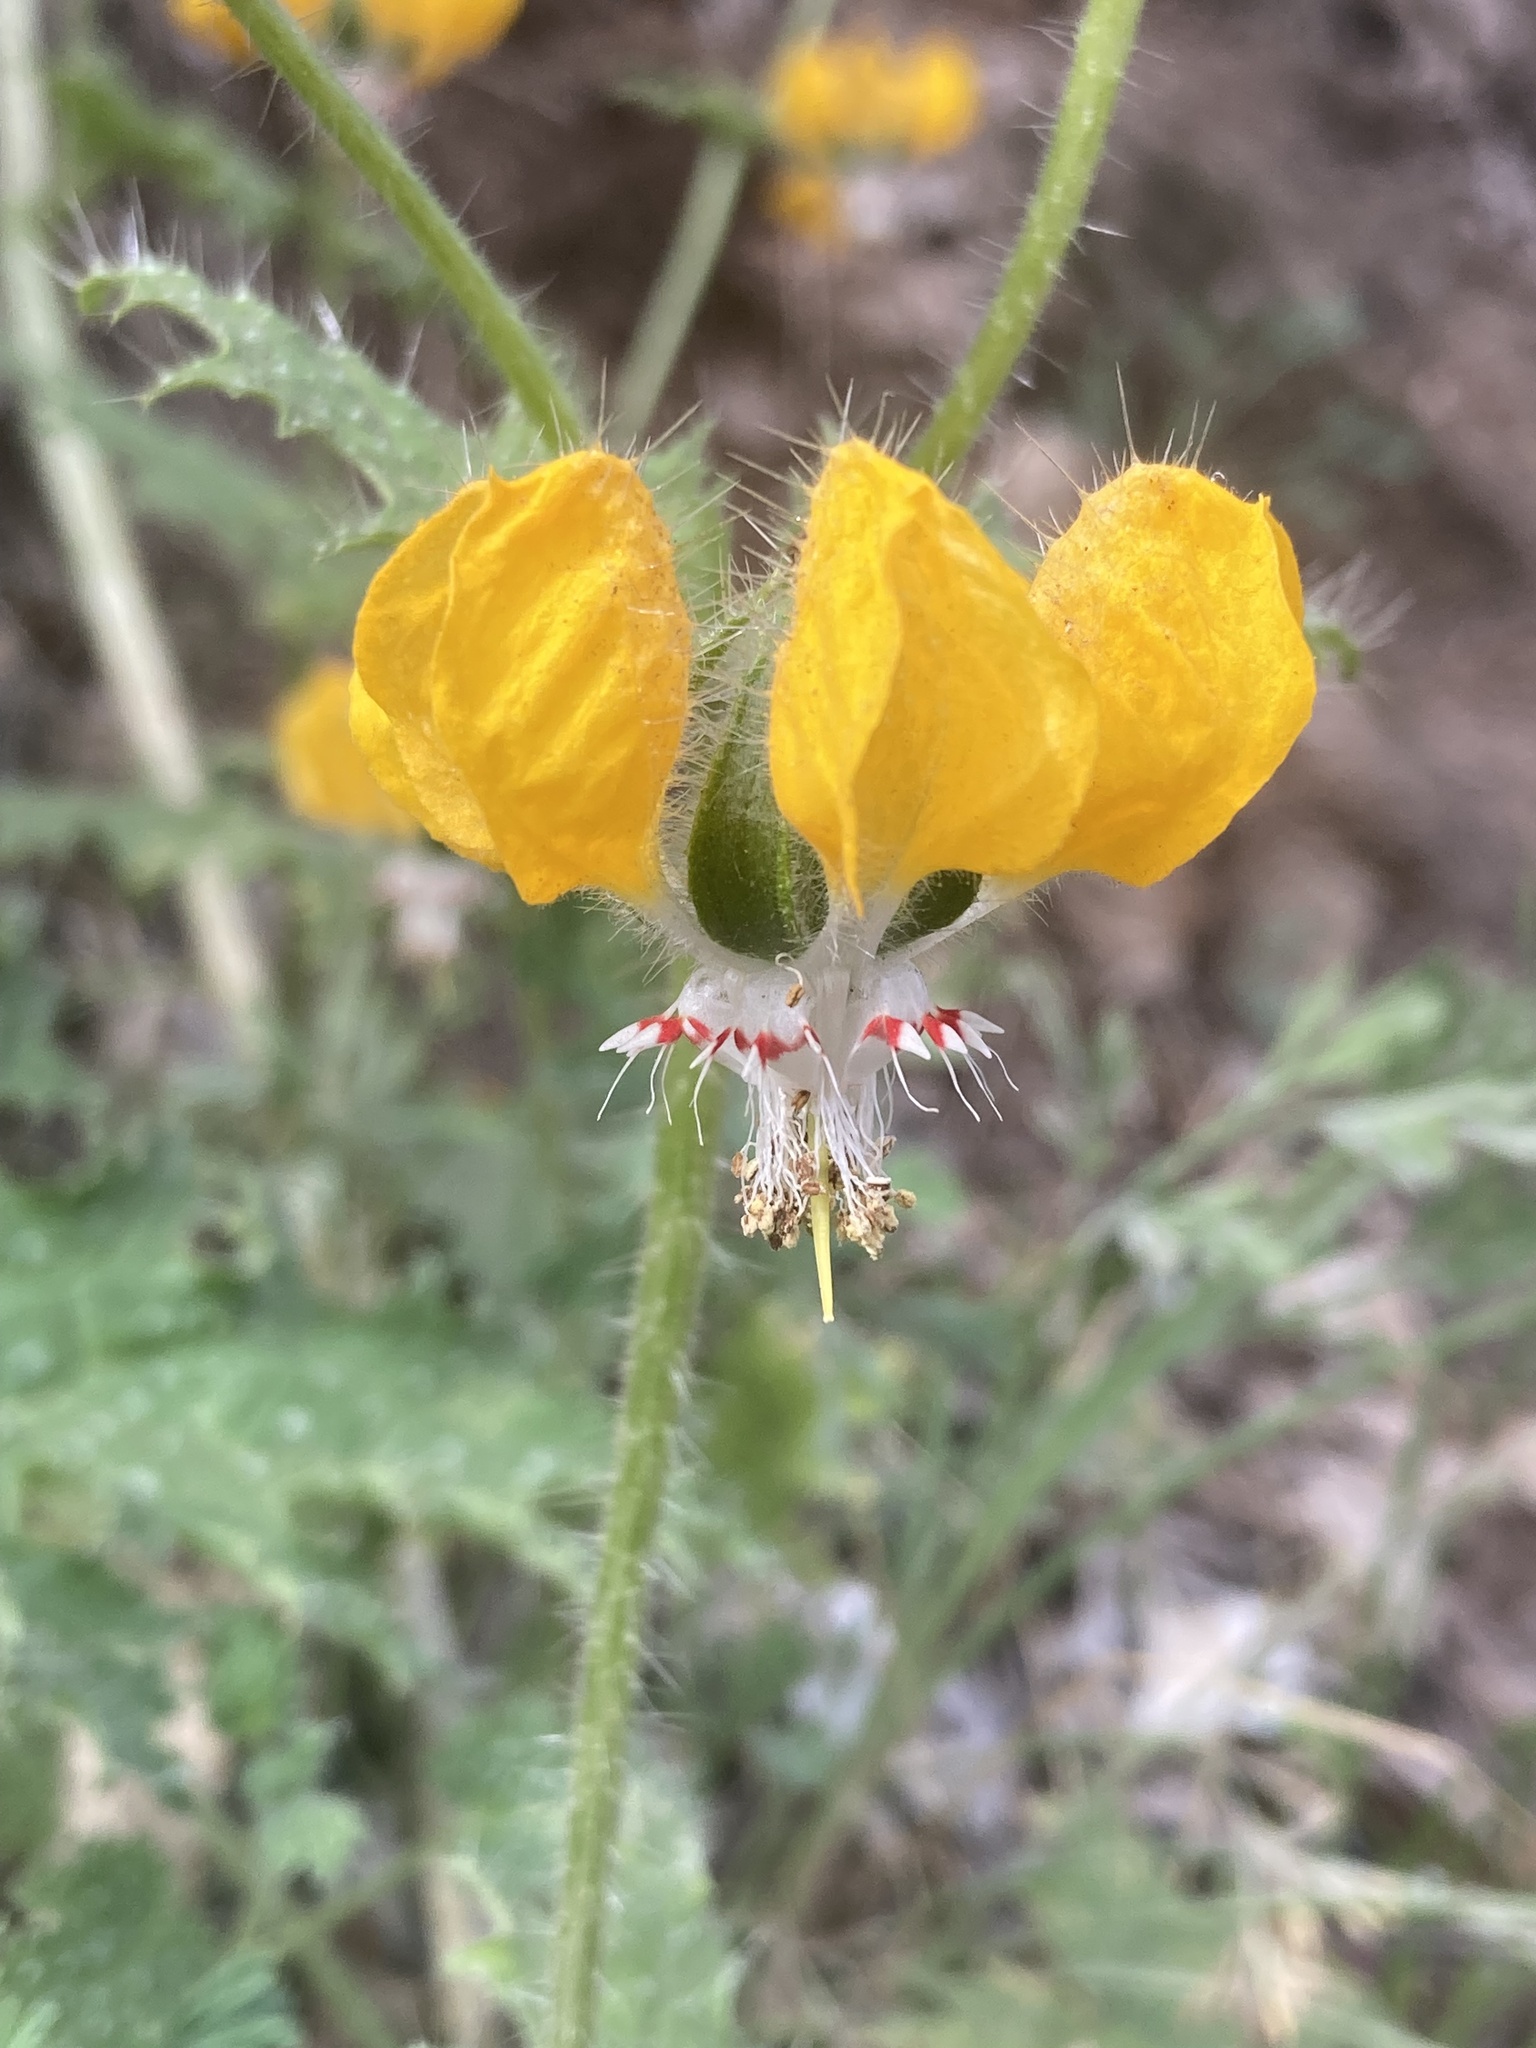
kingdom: Plantae
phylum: Tracheophyta
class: Magnoliopsida
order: Cornales
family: Loasaceae
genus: Loasa
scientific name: Loasa placei
